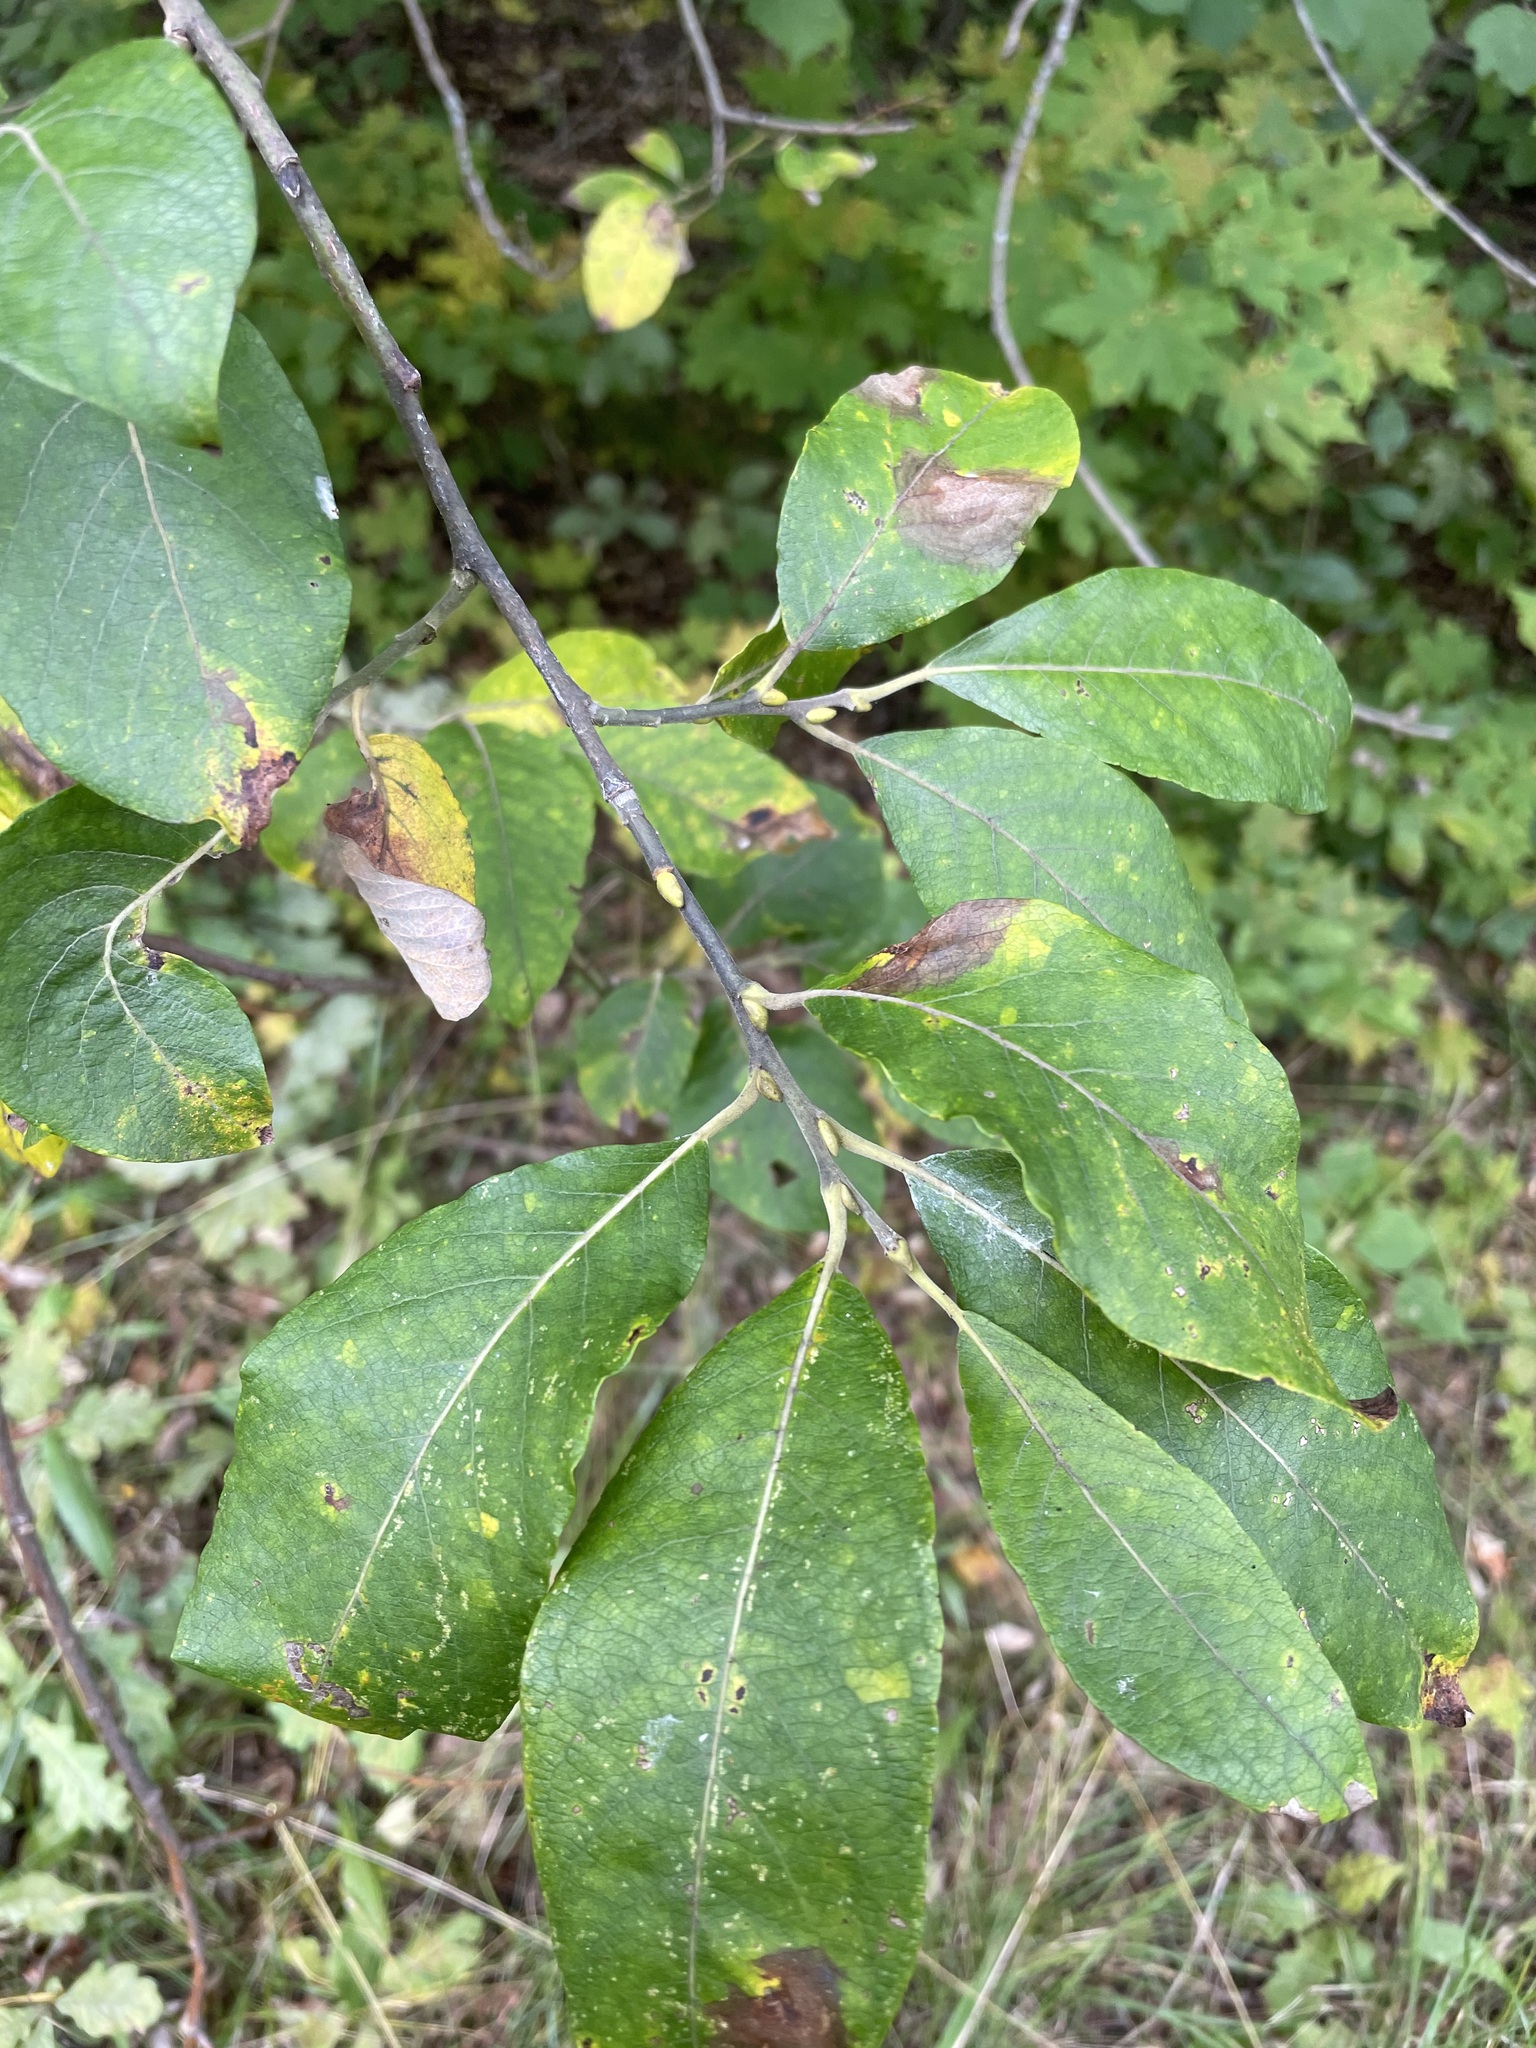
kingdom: Plantae
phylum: Tracheophyta
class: Magnoliopsida
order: Malpighiales
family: Salicaceae
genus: Salix
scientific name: Salix caprea
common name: Goat willow
